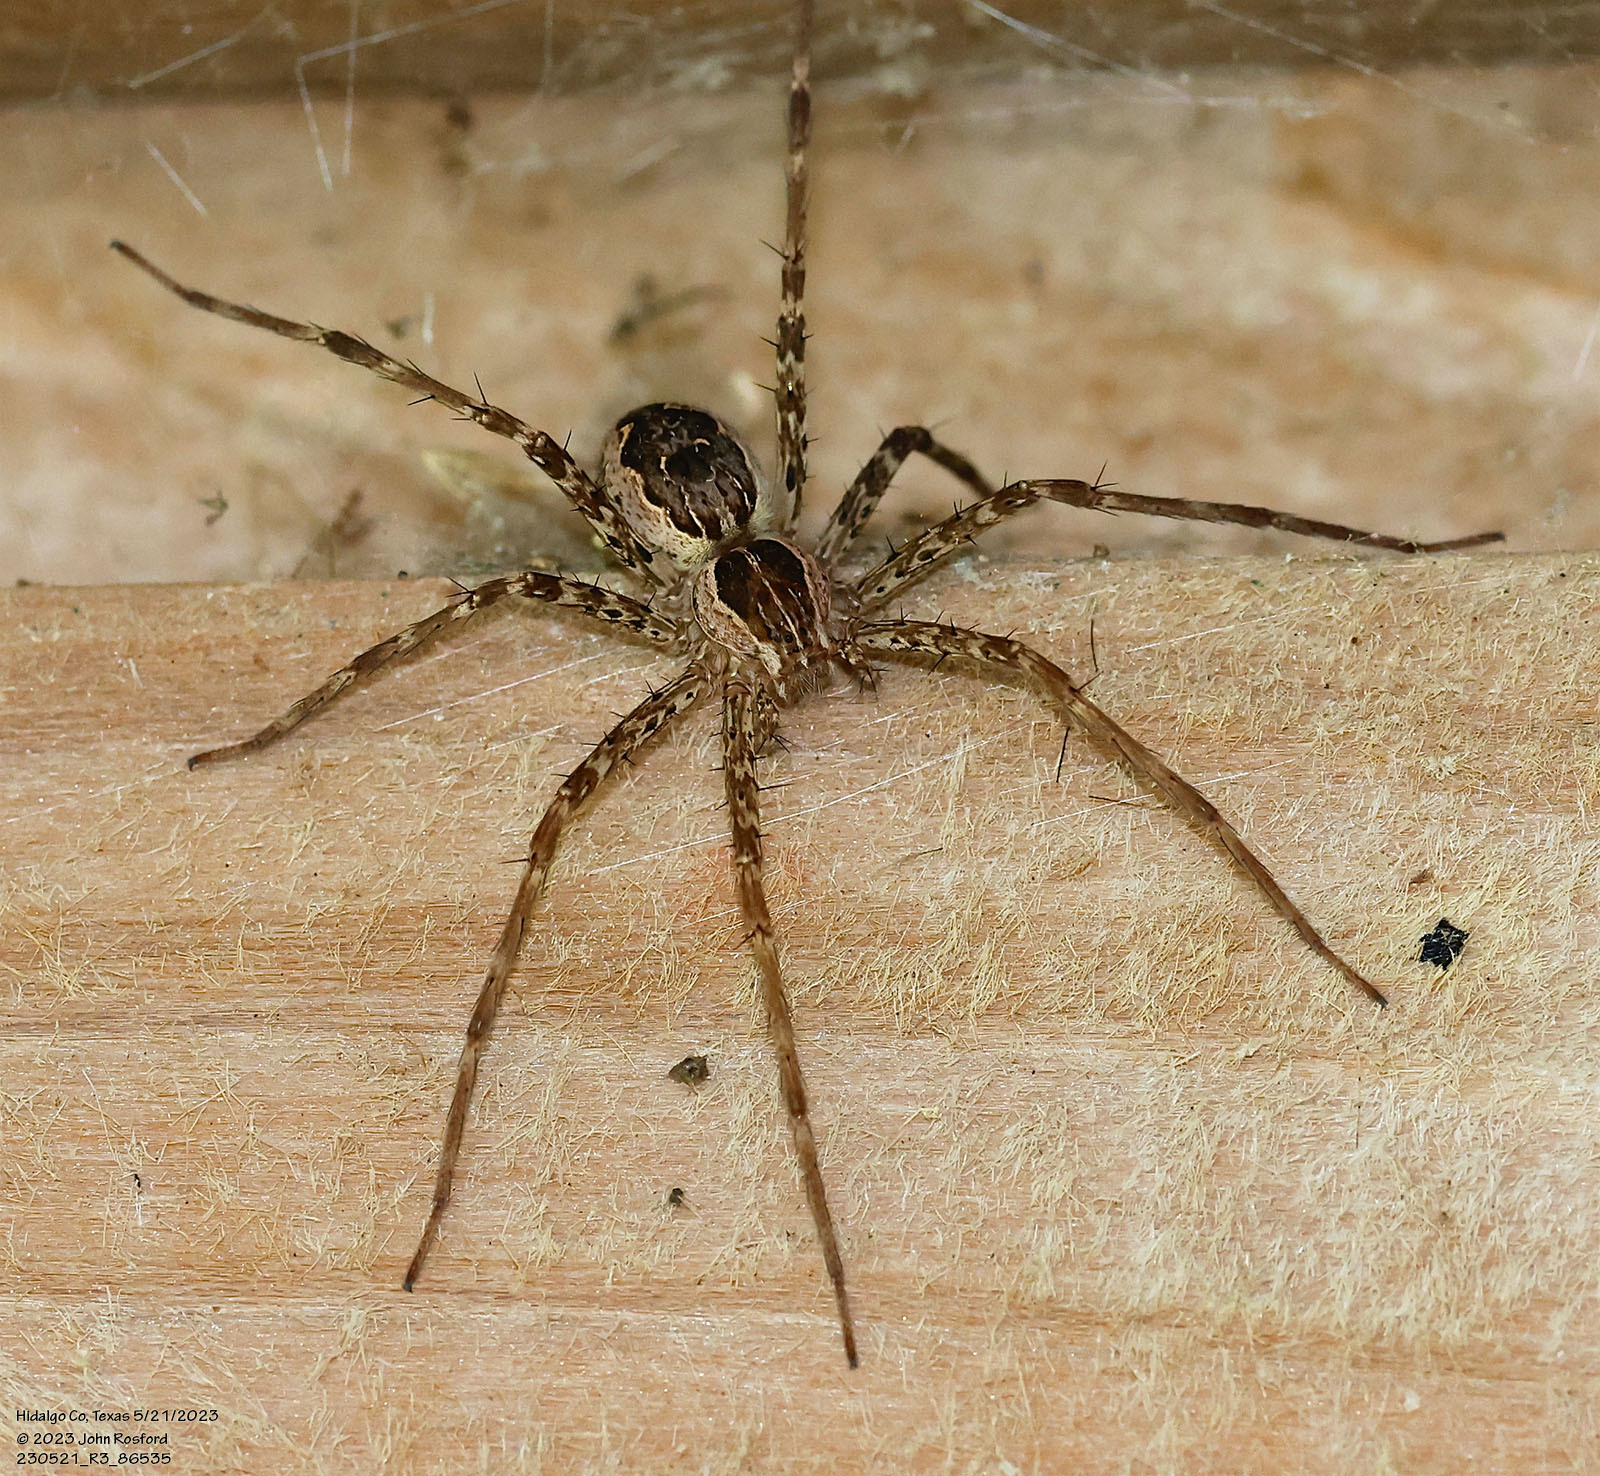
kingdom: Animalia
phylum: Arthropoda
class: Arachnida
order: Araneae
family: Pisauridae
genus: Tinus
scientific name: Tinus peregrinus
